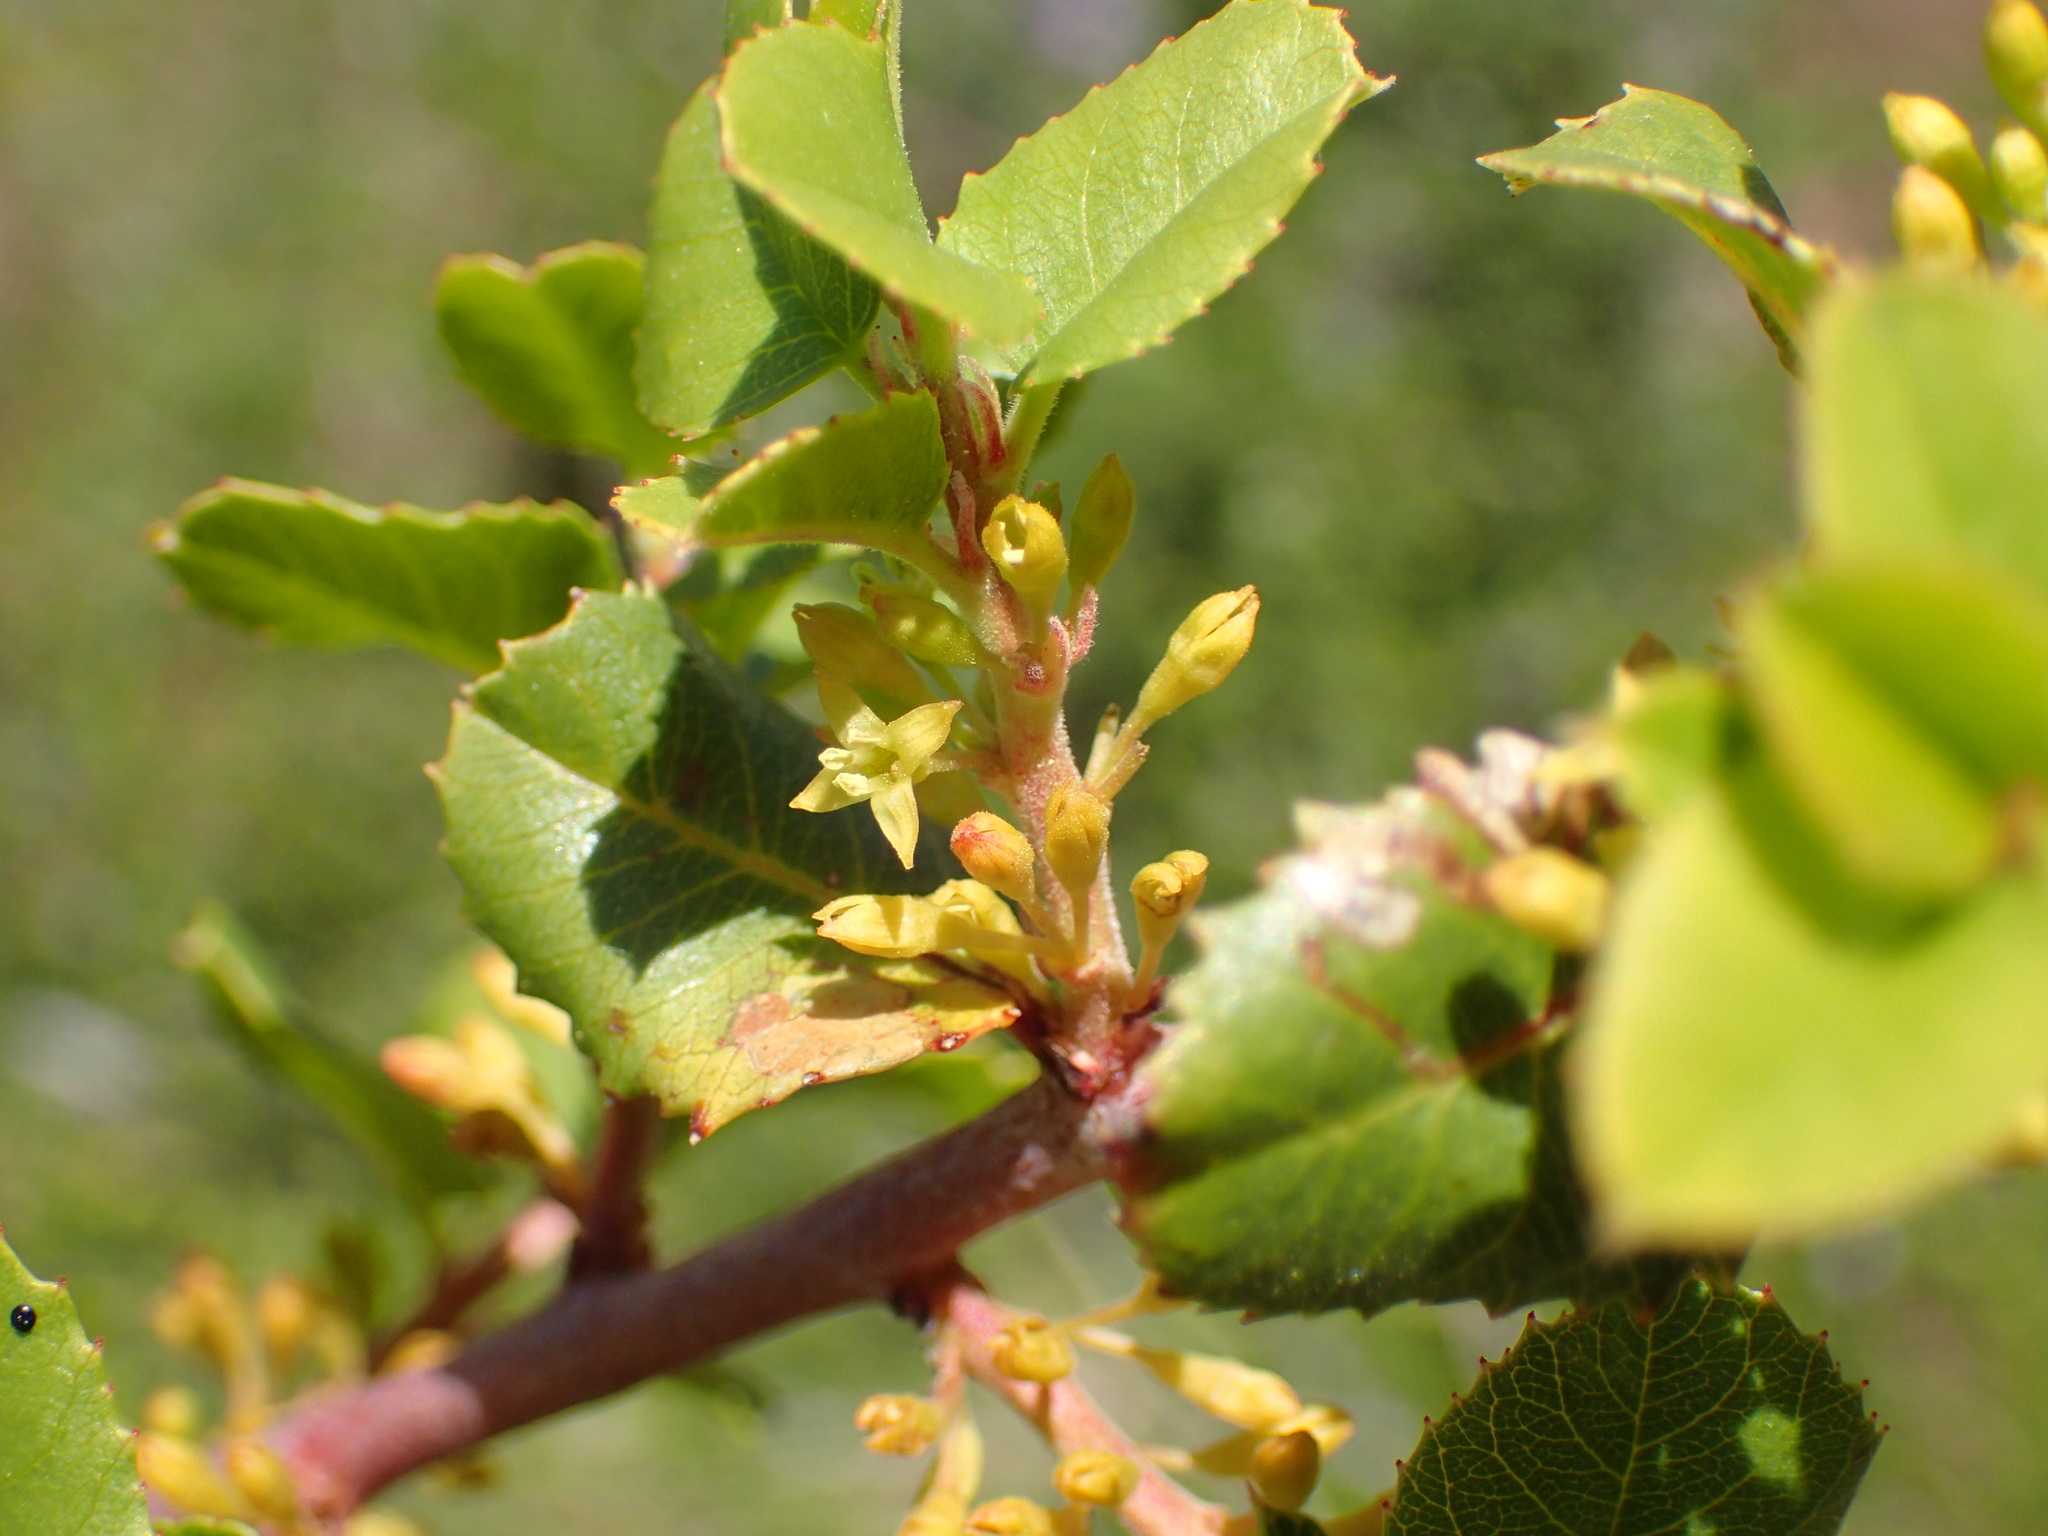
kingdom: Plantae
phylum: Tracheophyta
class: Magnoliopsida
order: Rosales
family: Rhamnaceae
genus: Endotropis
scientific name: Endotropis crocea
